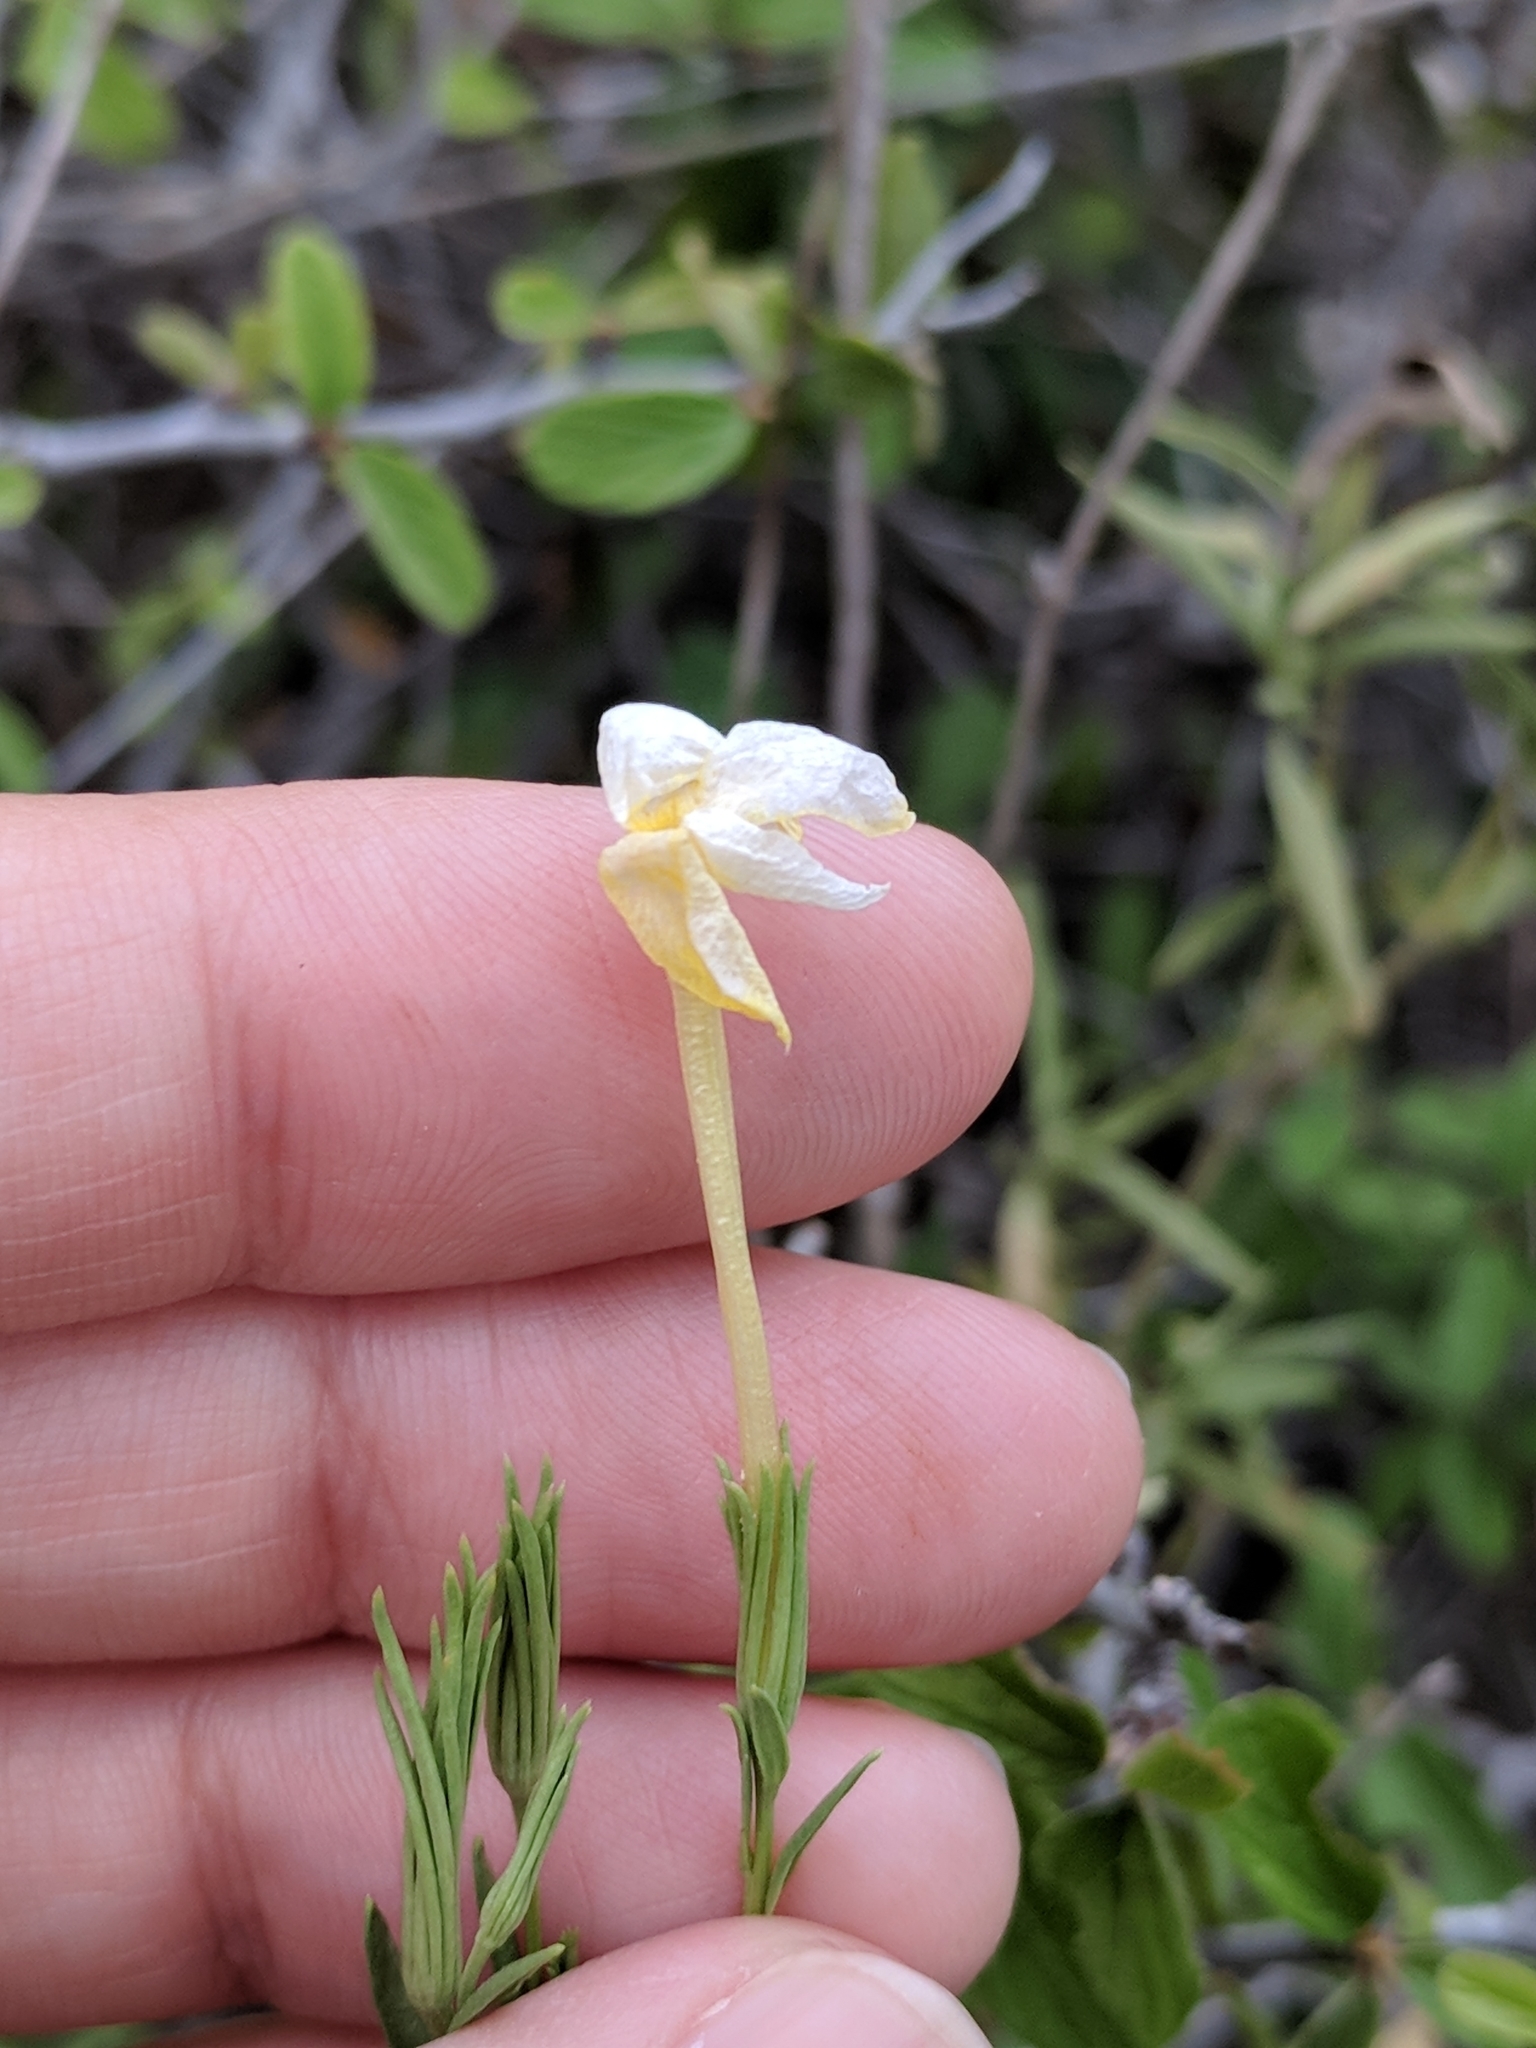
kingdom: Plantae
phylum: Tracheophyta
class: Magnoliopsida
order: Lamiales
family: Oleaceae
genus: Menodora
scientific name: Menodora longiflora
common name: Showy menodora
